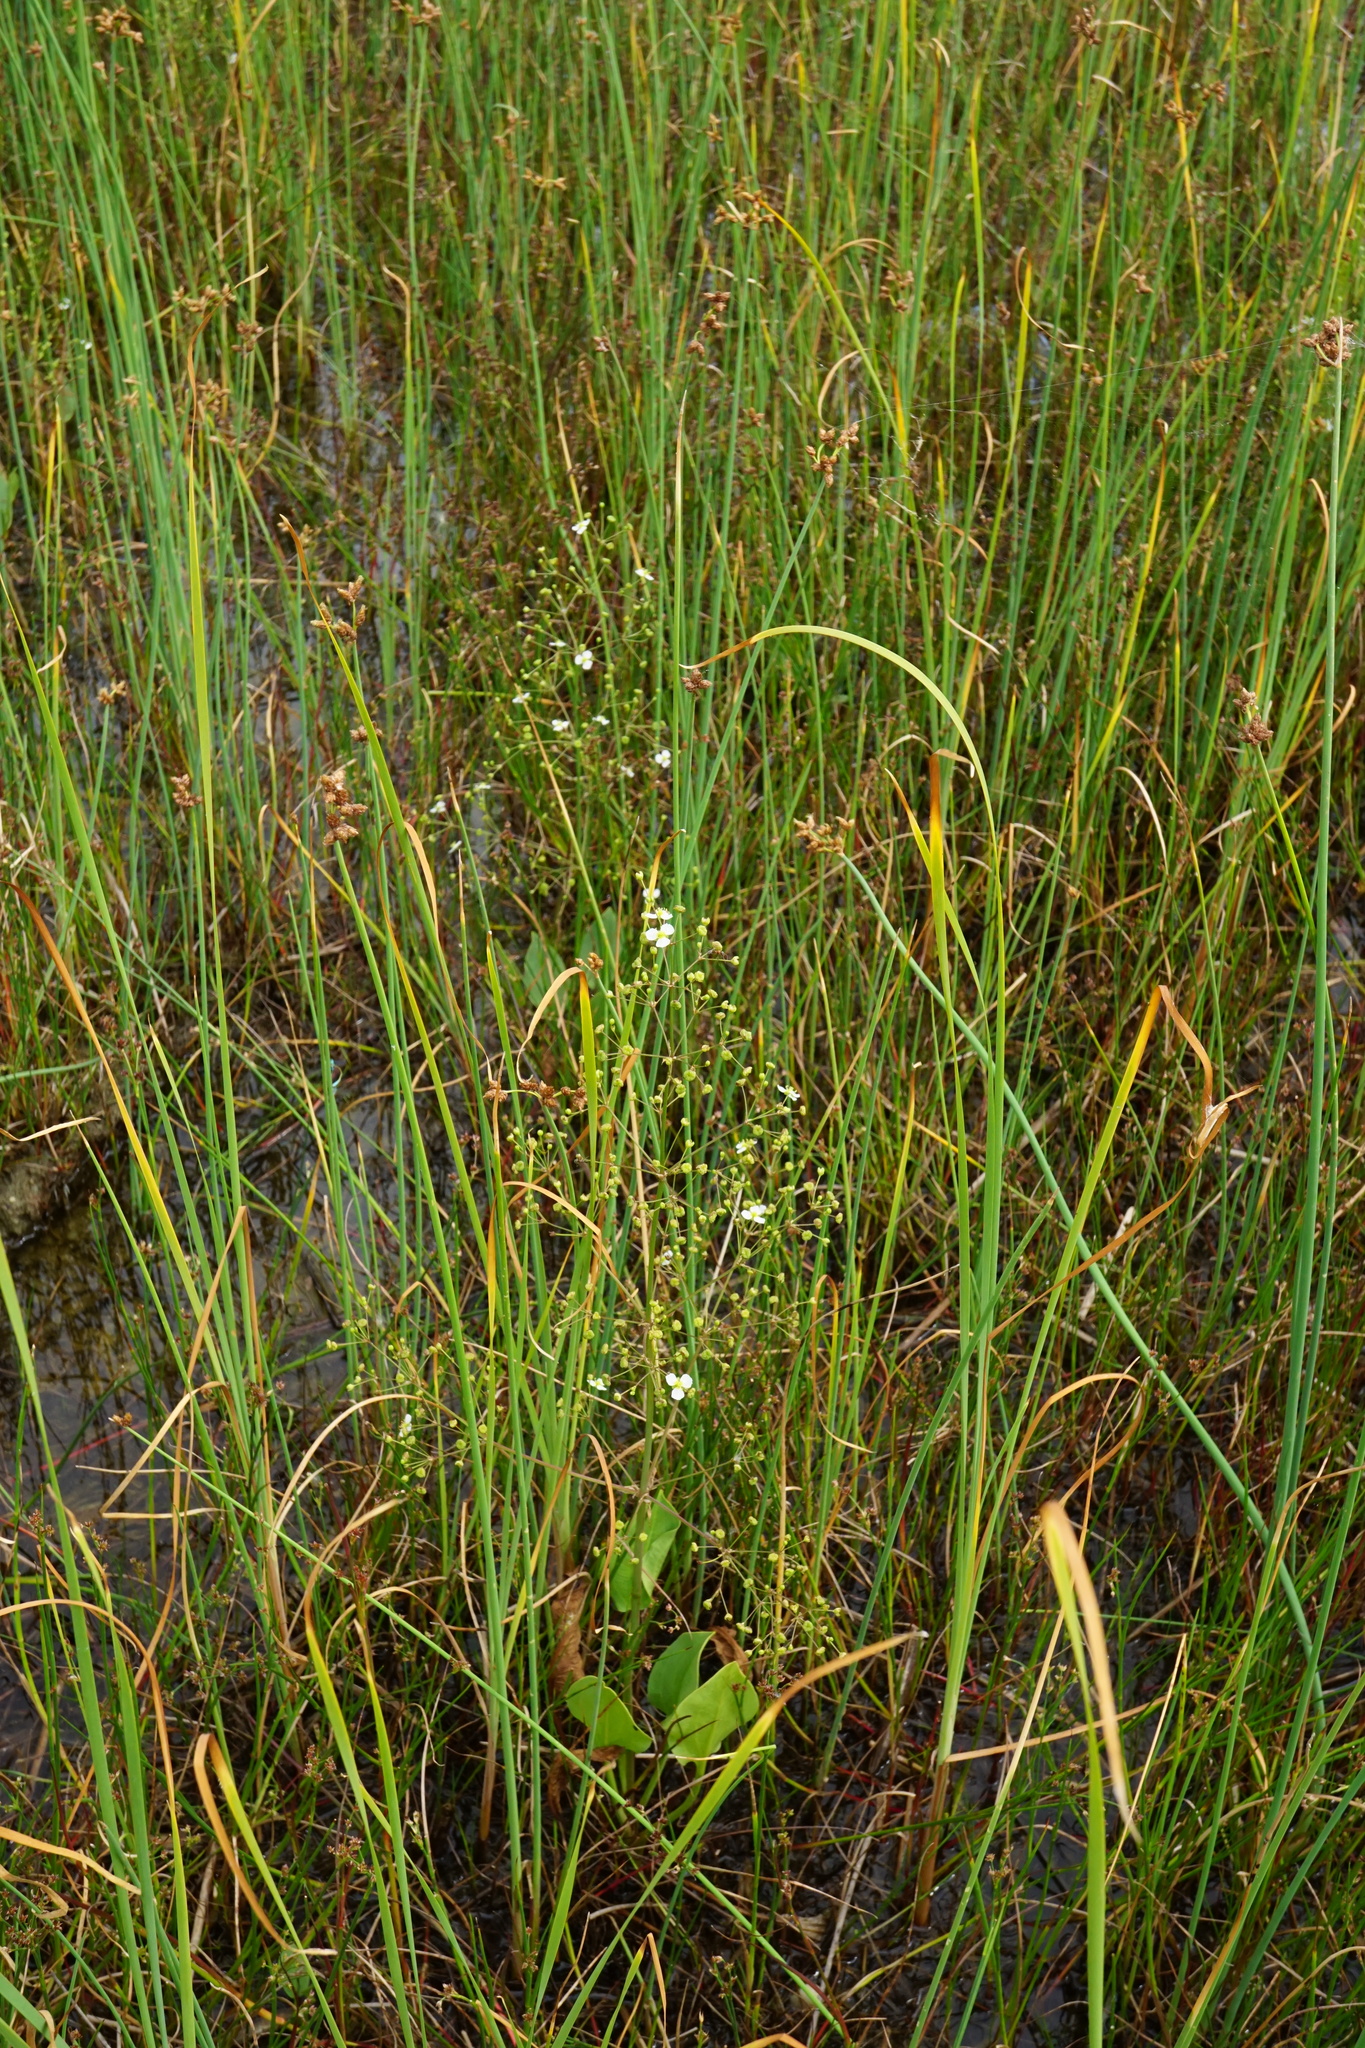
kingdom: Plantae
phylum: Tracheophyta
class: Liliopsida
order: Alismatales
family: Alismataceae
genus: Alisma
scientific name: Alisma plantago-aquatica
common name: Water-plantain
